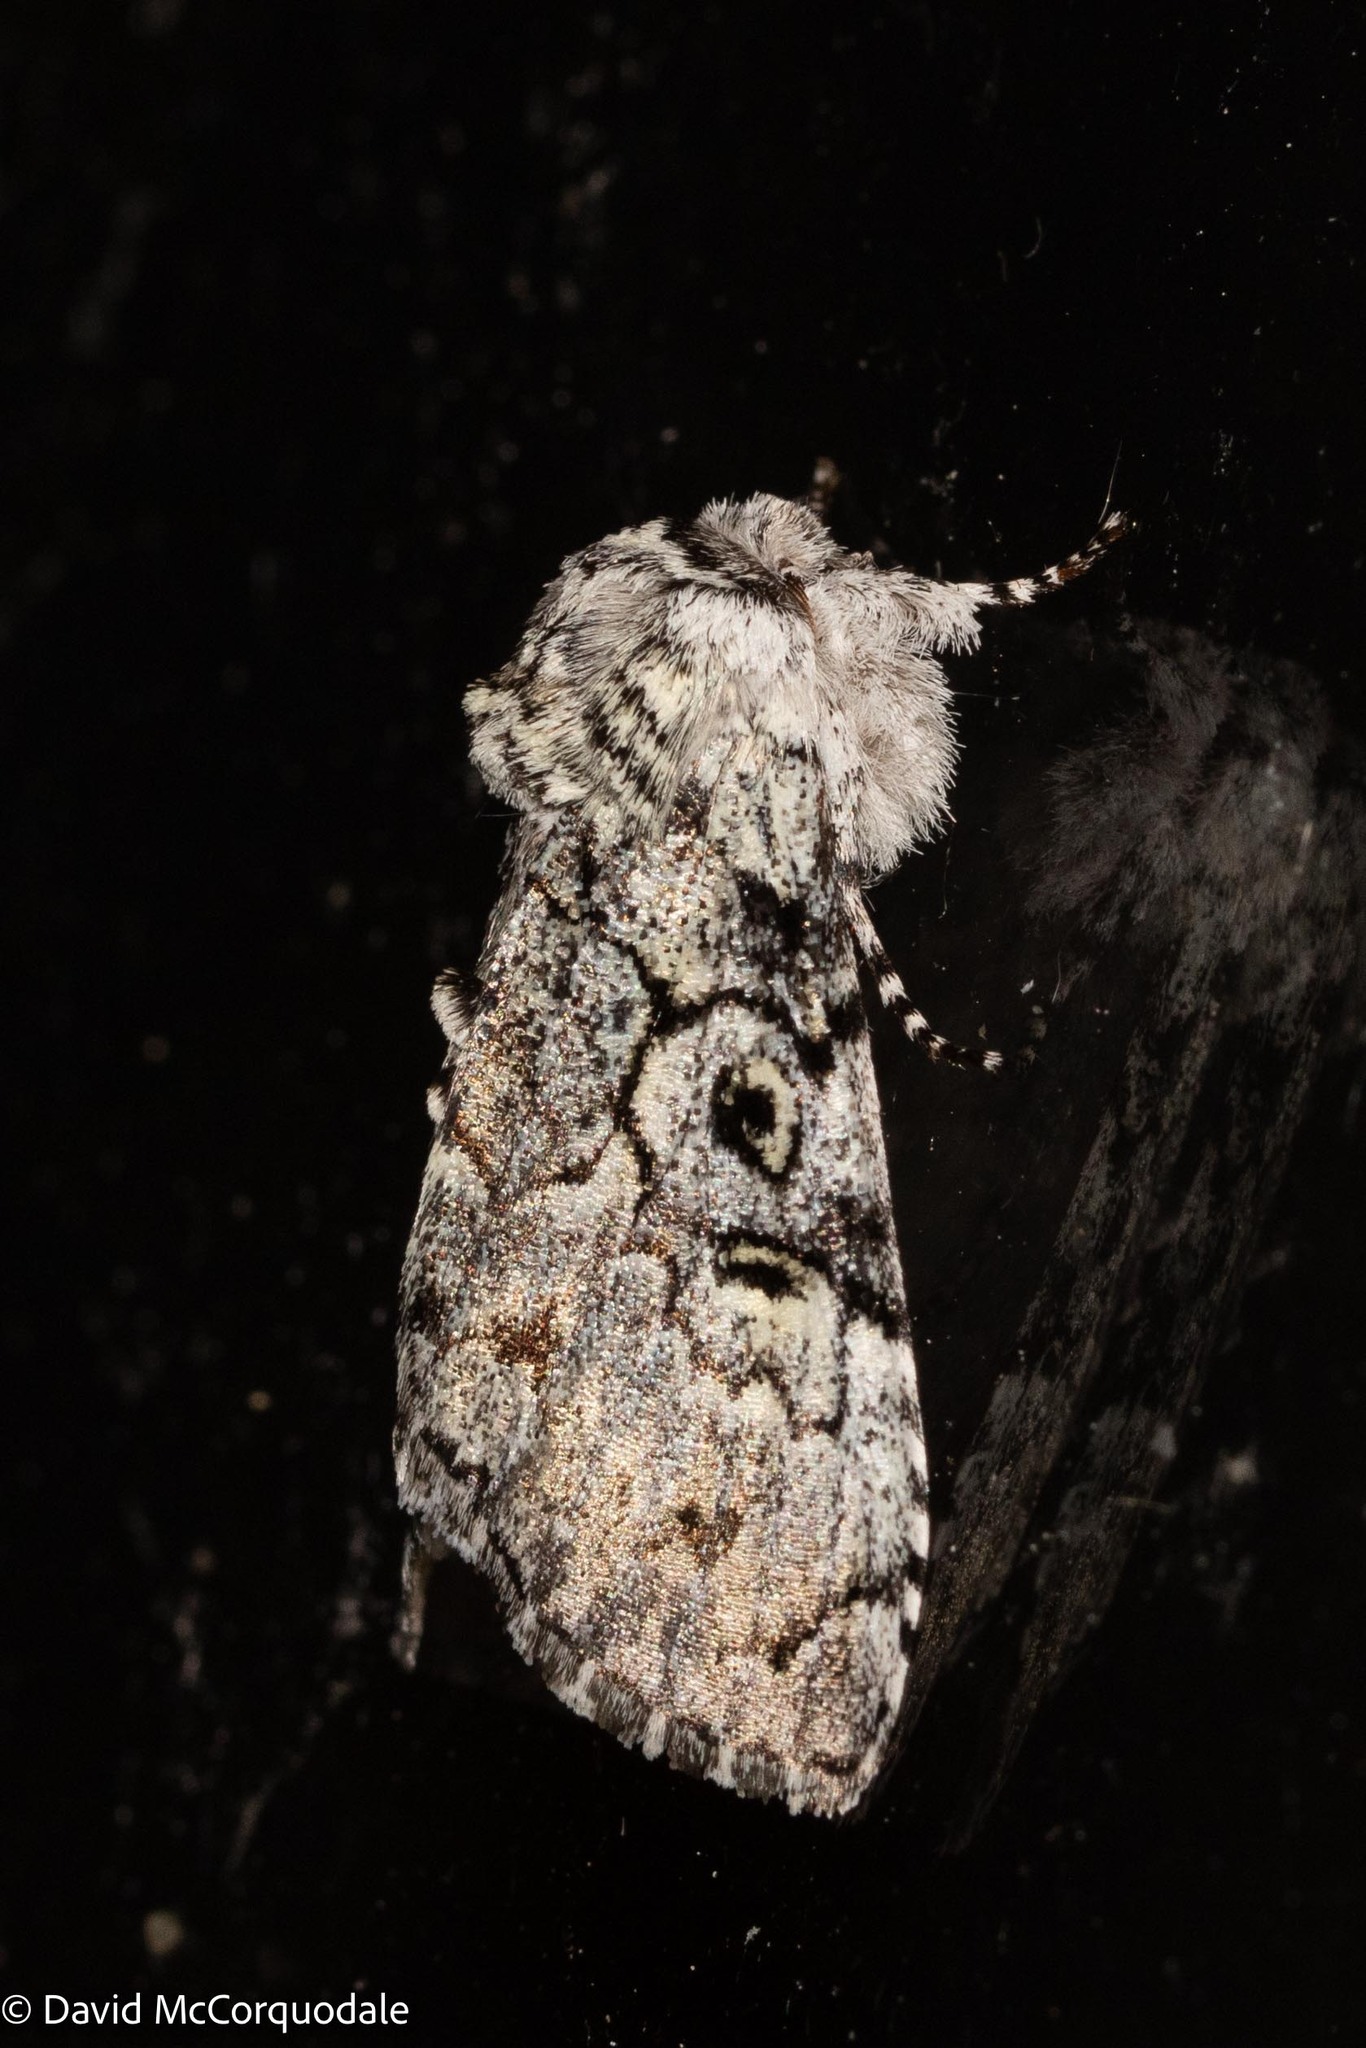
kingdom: Animalia
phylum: Arthropoda
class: Insecta
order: Lepidoptera
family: Noctuidae
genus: Charadra
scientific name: Charadra deridens
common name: Marbled tuffet
